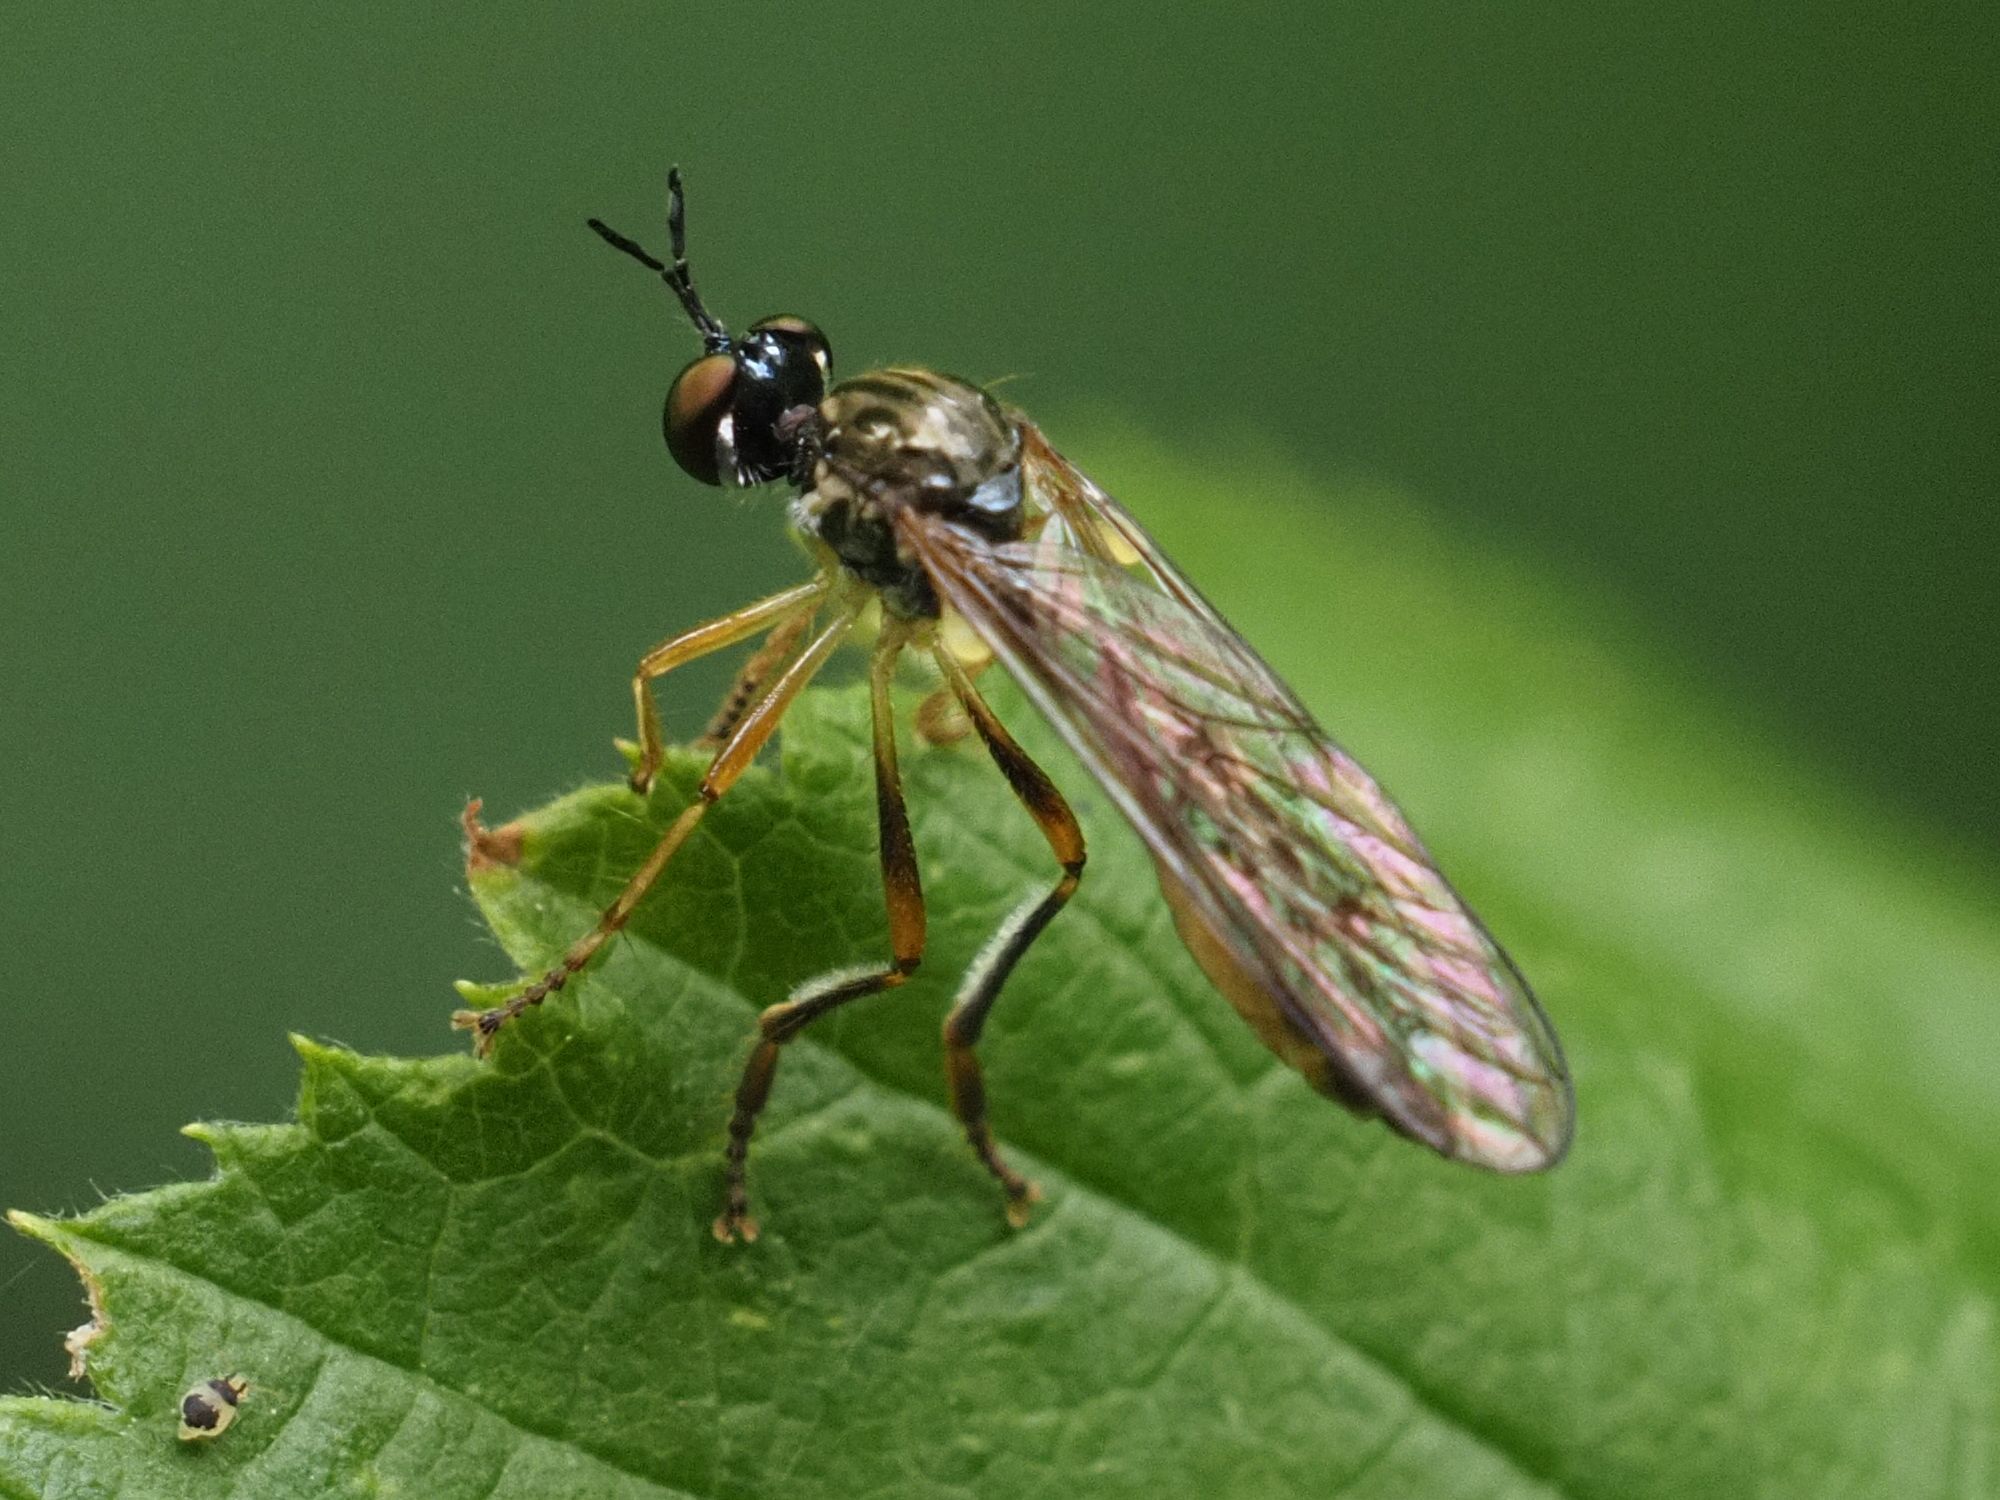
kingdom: Animalia
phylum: Arthropoda
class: Insecta
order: Diptera
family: Asilidae
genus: Dioctria
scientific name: Dioctria linearis
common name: Small yellow-legged robberfly
